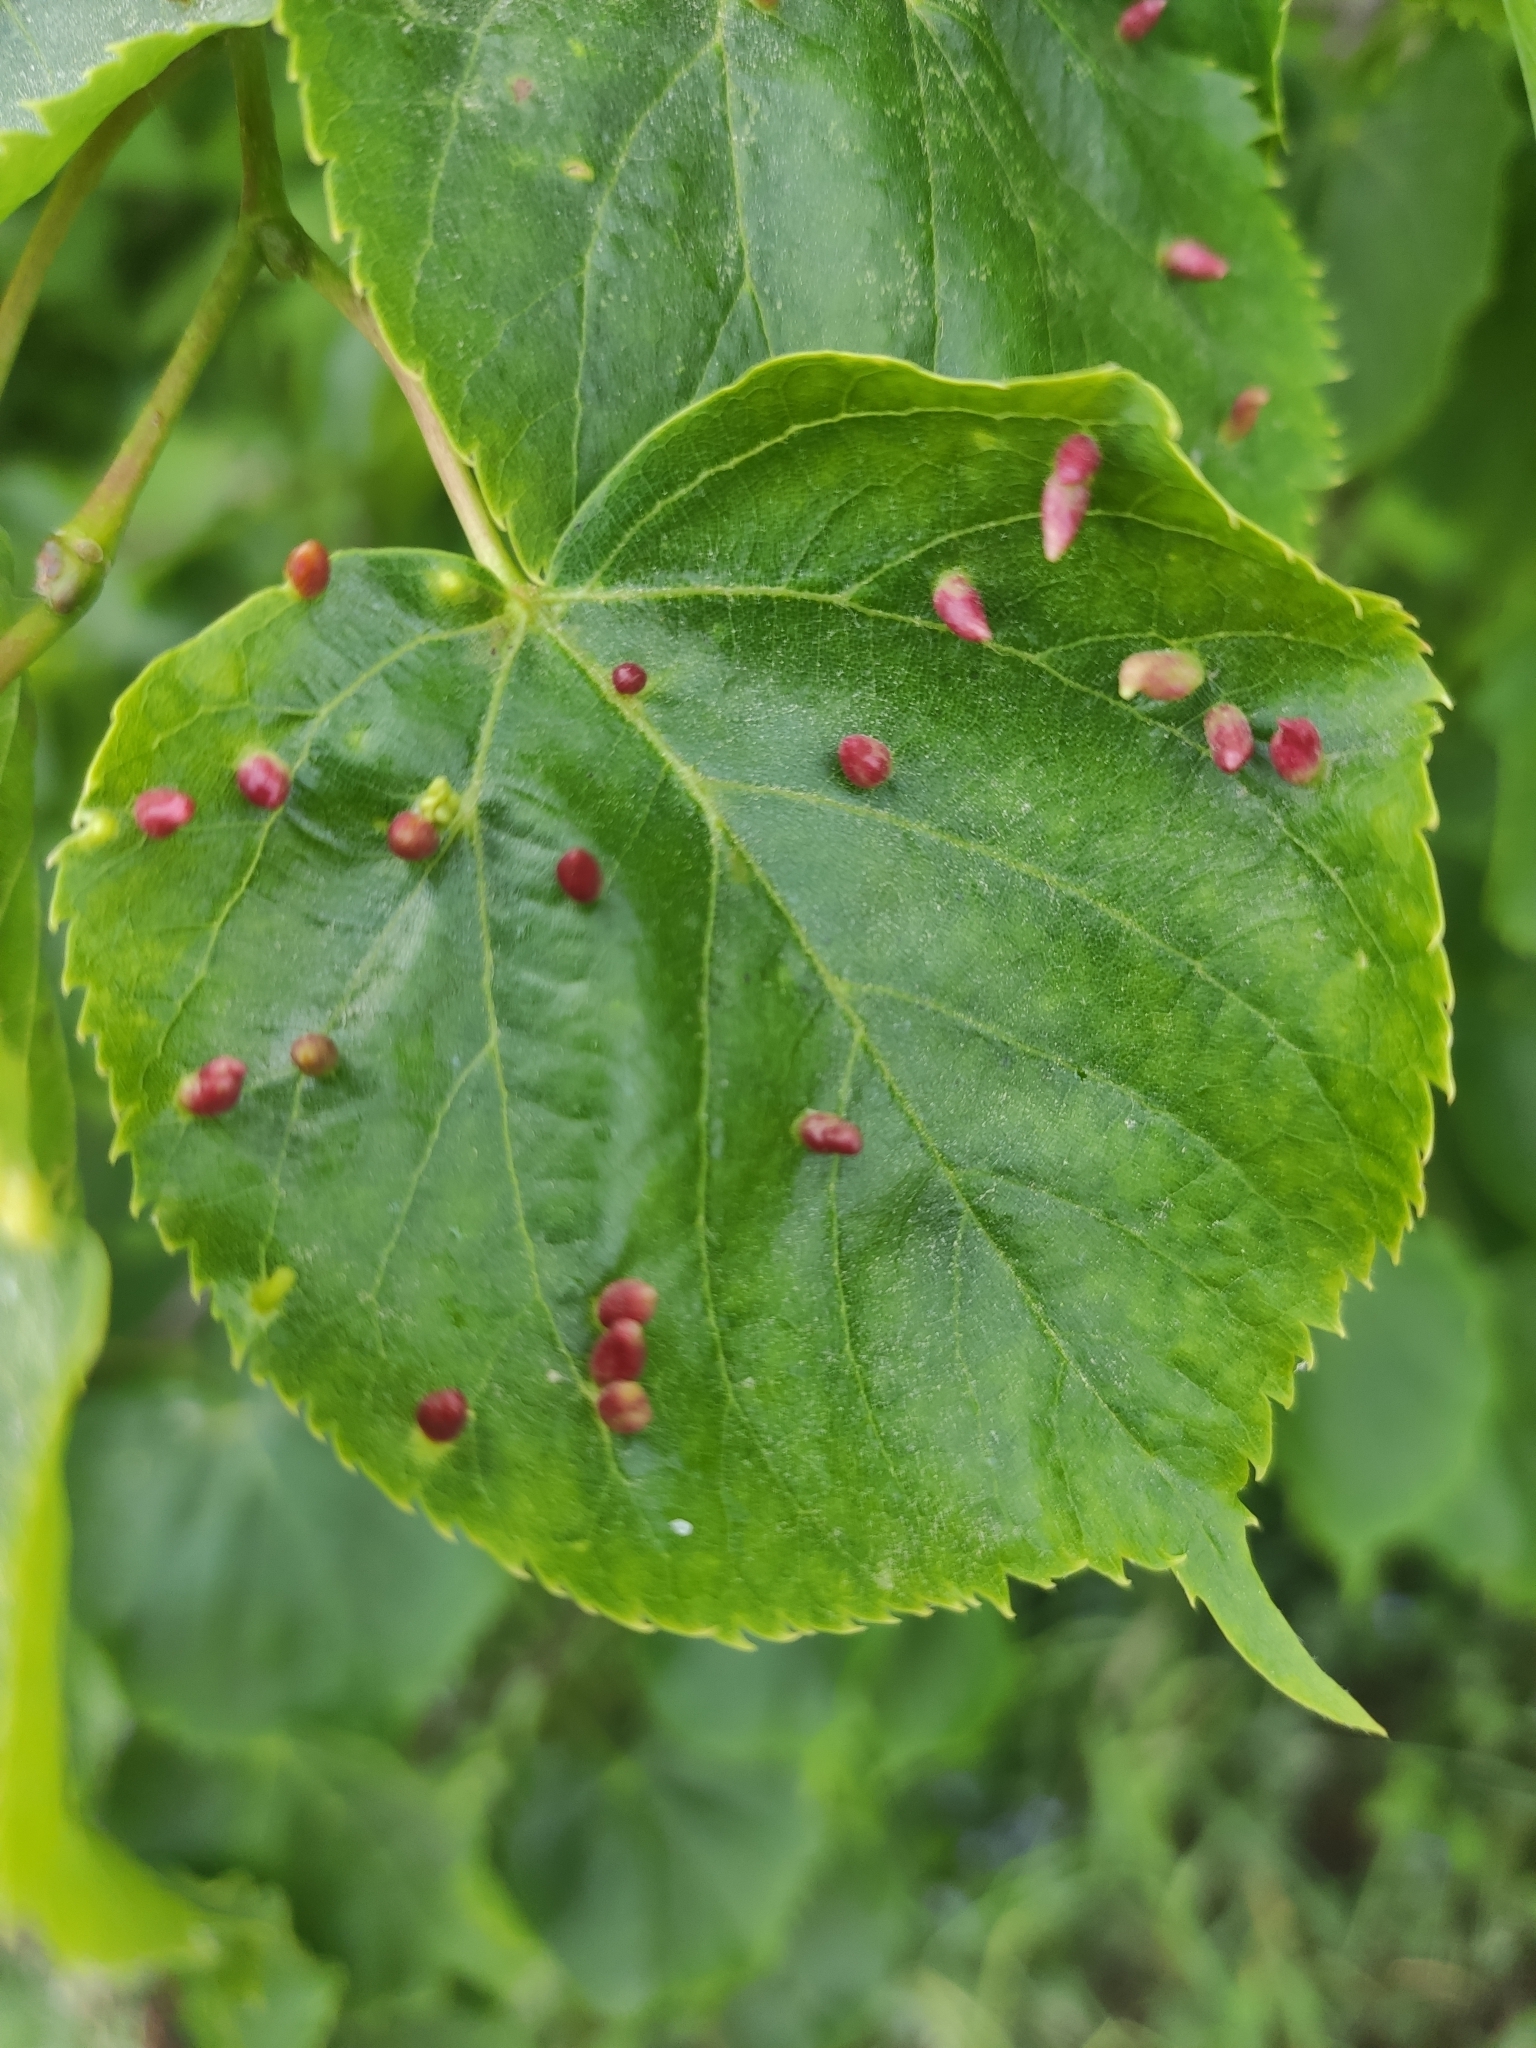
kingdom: Animalia
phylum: Arthropoda
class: Arachnida
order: Trombidiformes
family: Eriophyidae
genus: Eriophyes
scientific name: Eriophyes tiliae
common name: Red nail gall mite
